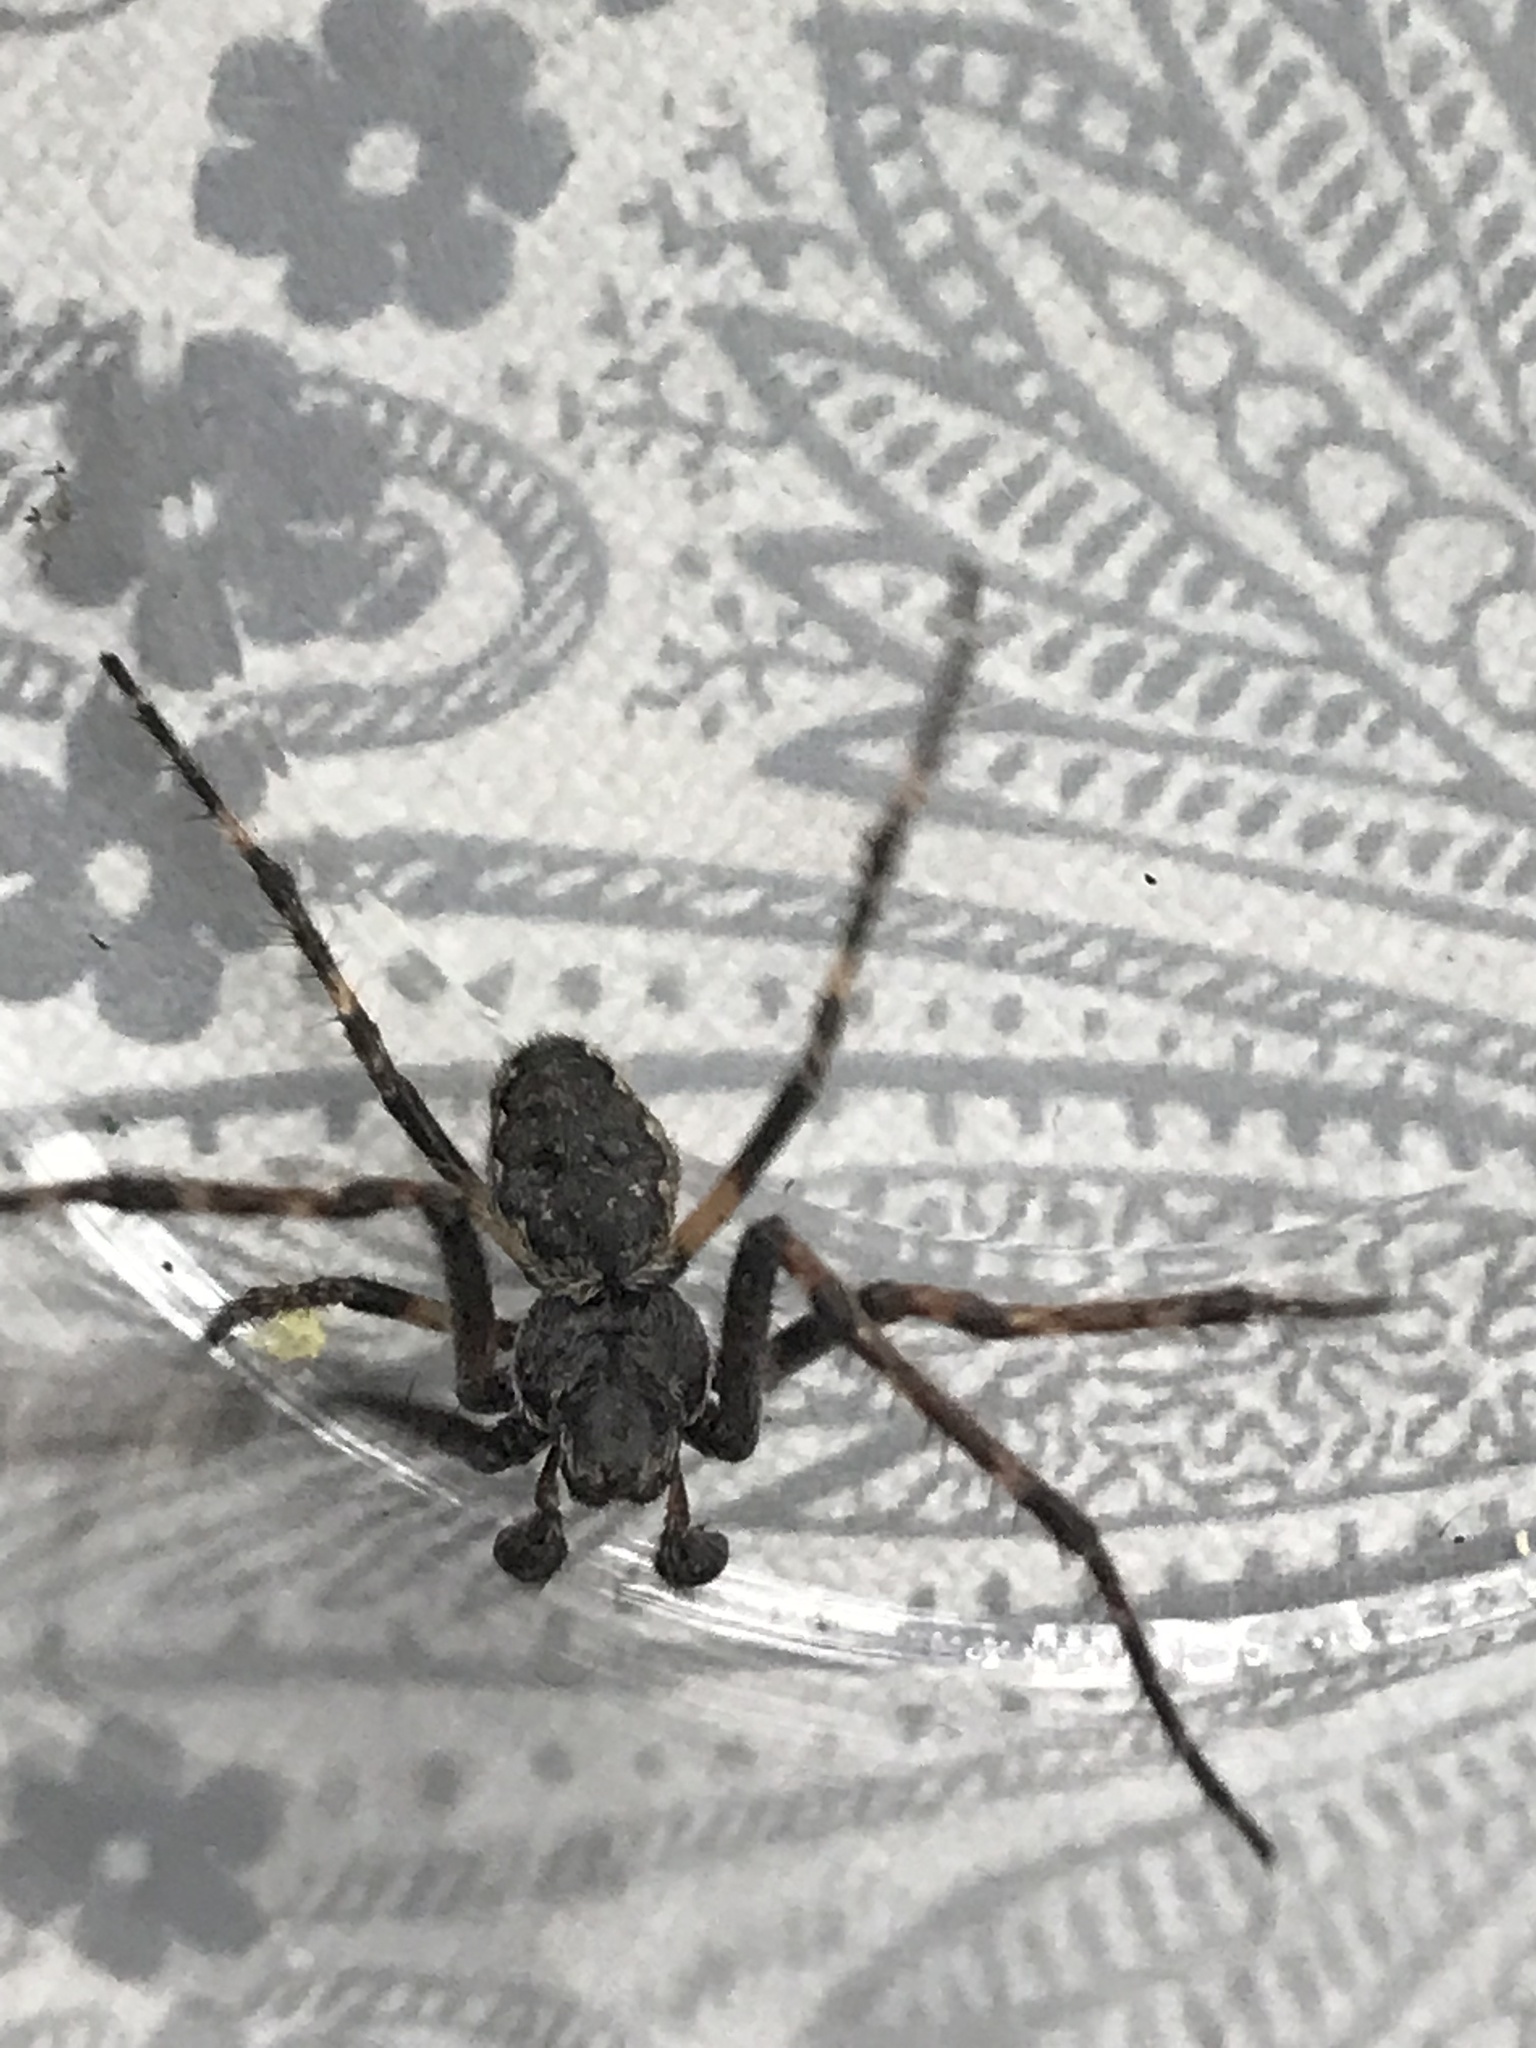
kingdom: Animalia
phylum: Arthropoda
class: Arachnida
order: Araneae
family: Araneidae
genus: Nuctenea
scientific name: Nuctenea umbratica
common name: Toad spider
